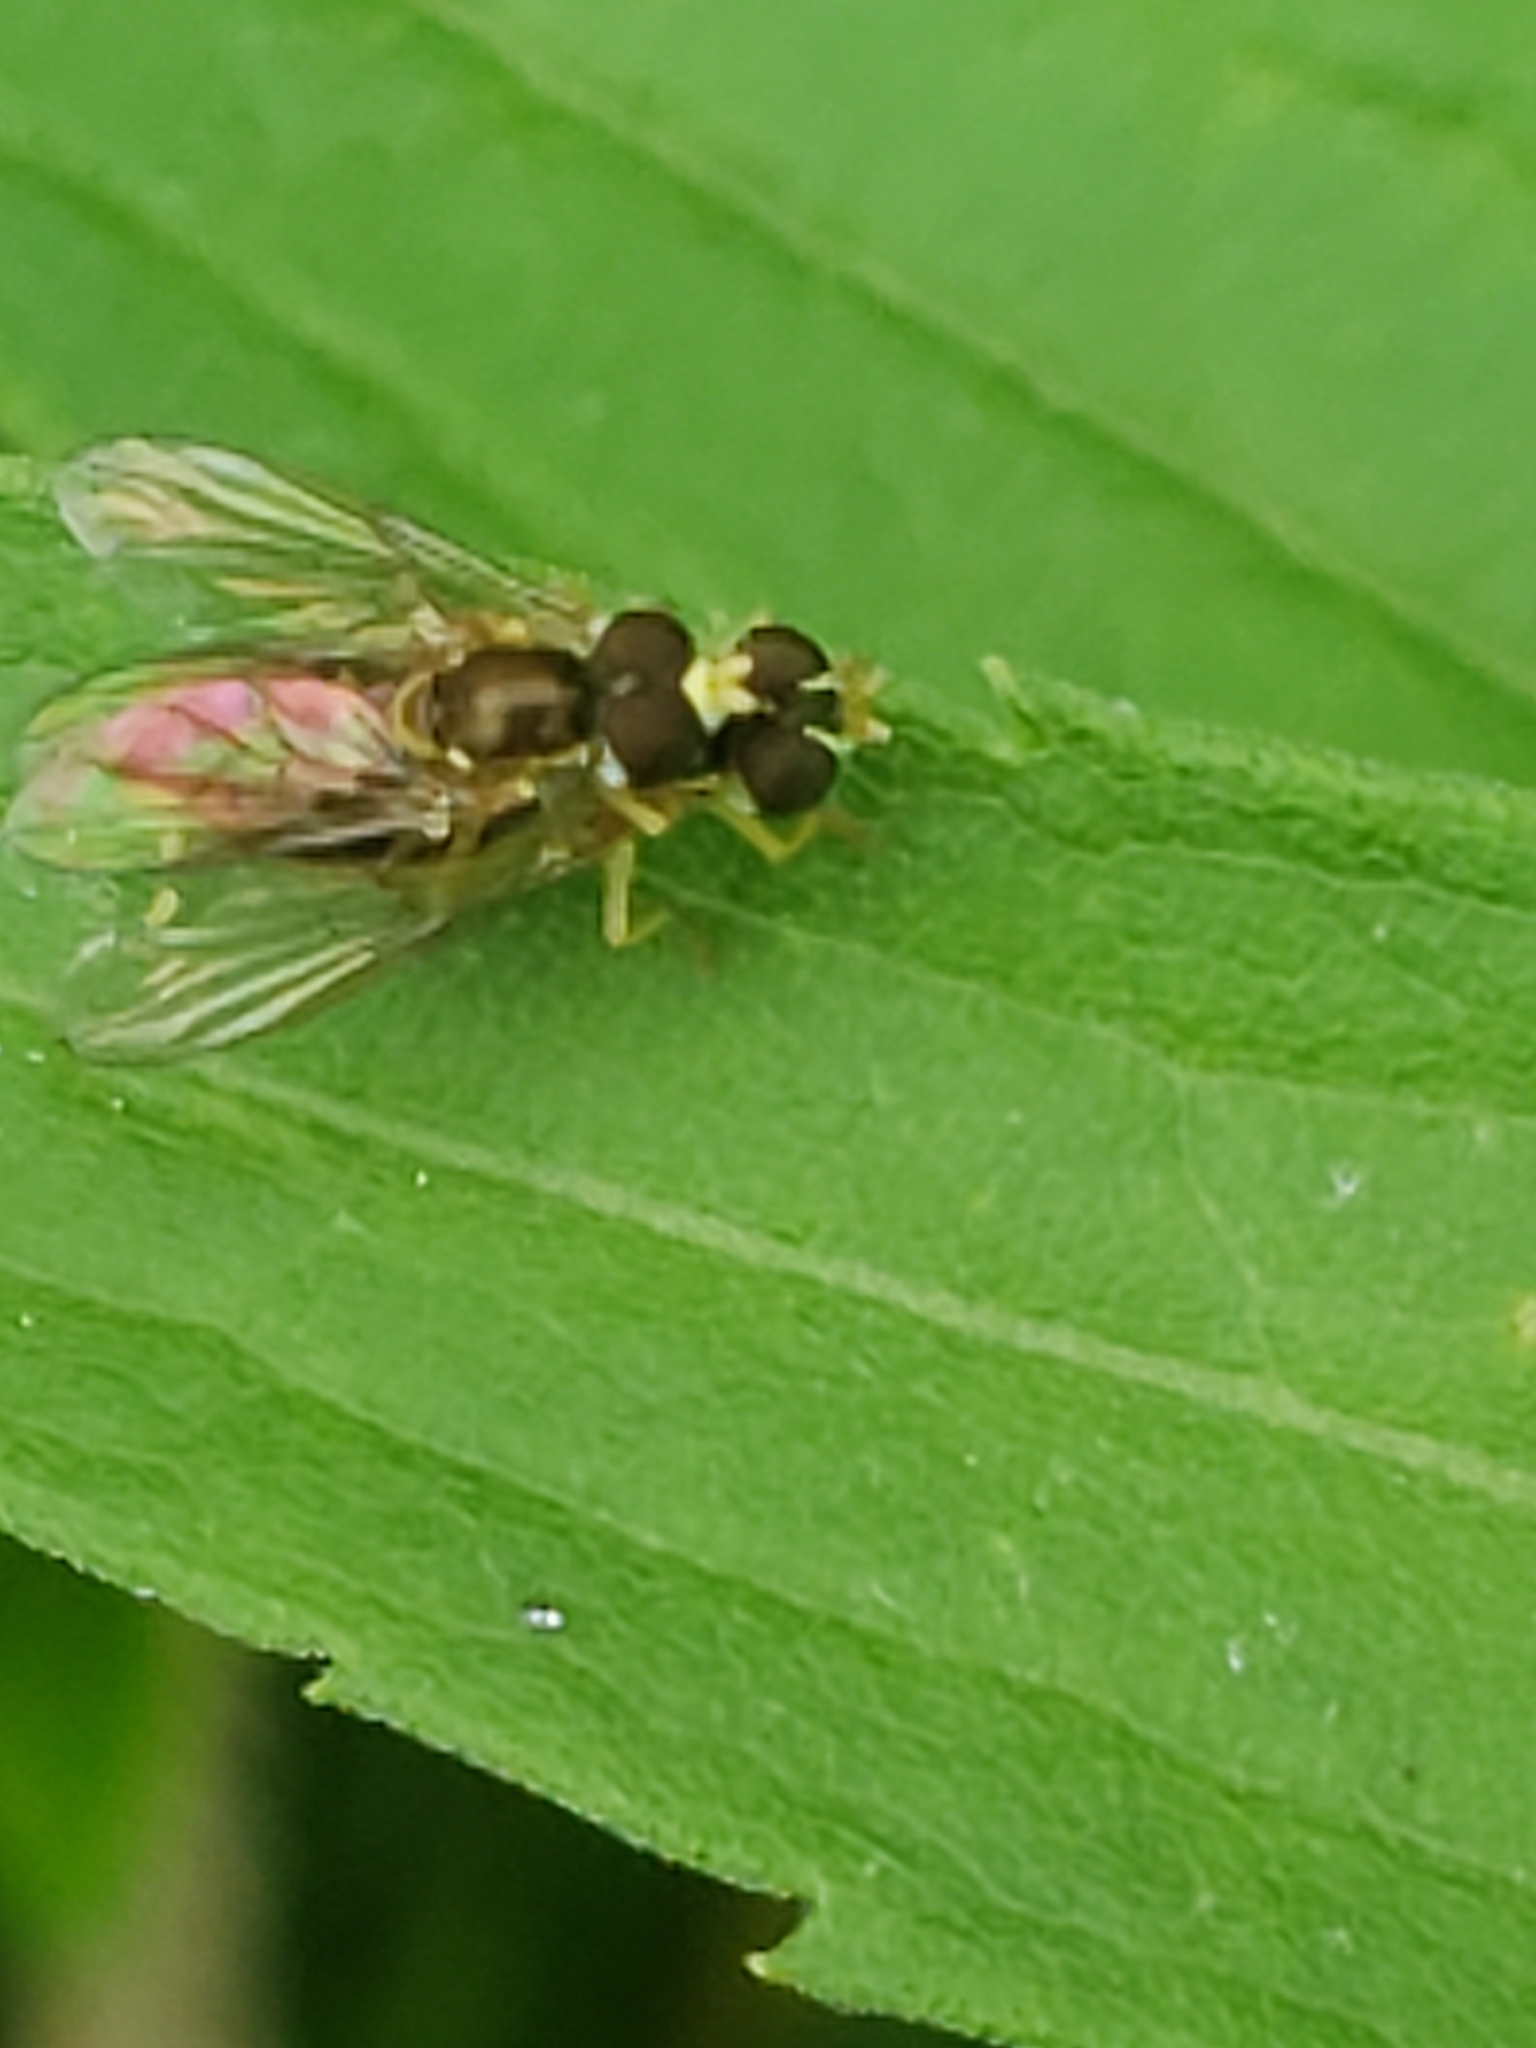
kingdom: Animalia
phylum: Arthropoda
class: Insecta
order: Diptera
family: Syrphidae
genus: Toxomerus
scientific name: Toxomerus marginatus
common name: Syrphid fly
